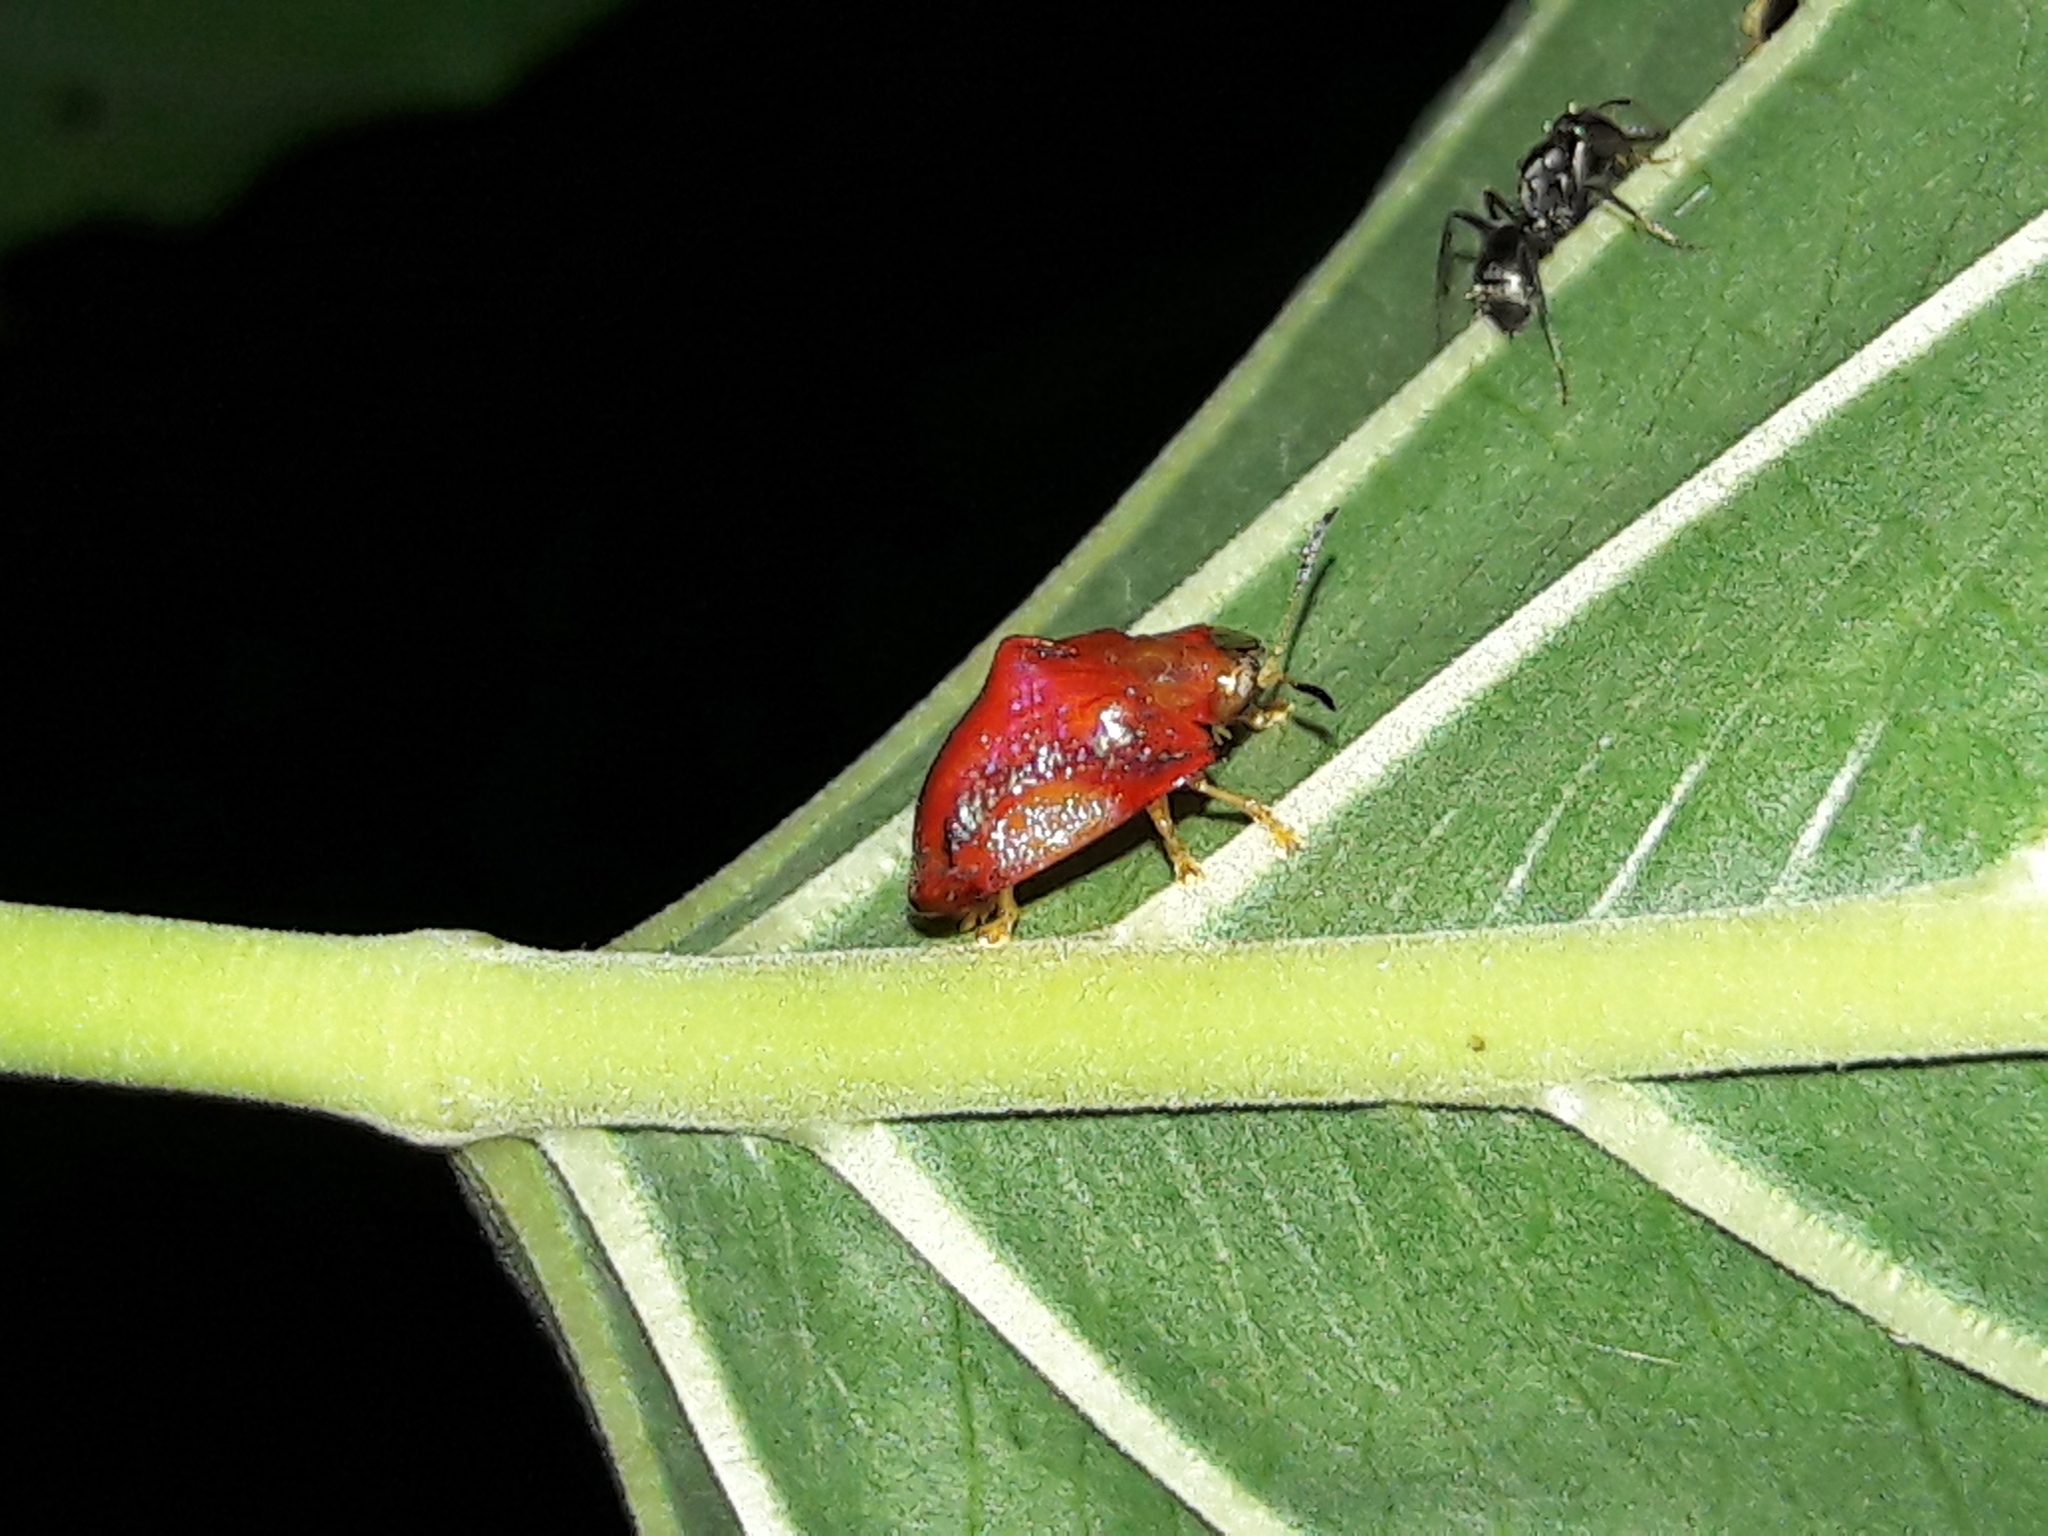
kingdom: Animalia
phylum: Arthropoda
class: Insecta
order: Coleoptera
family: Chrysomelidae
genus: Charidotella
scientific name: Charidotella rubicunda
